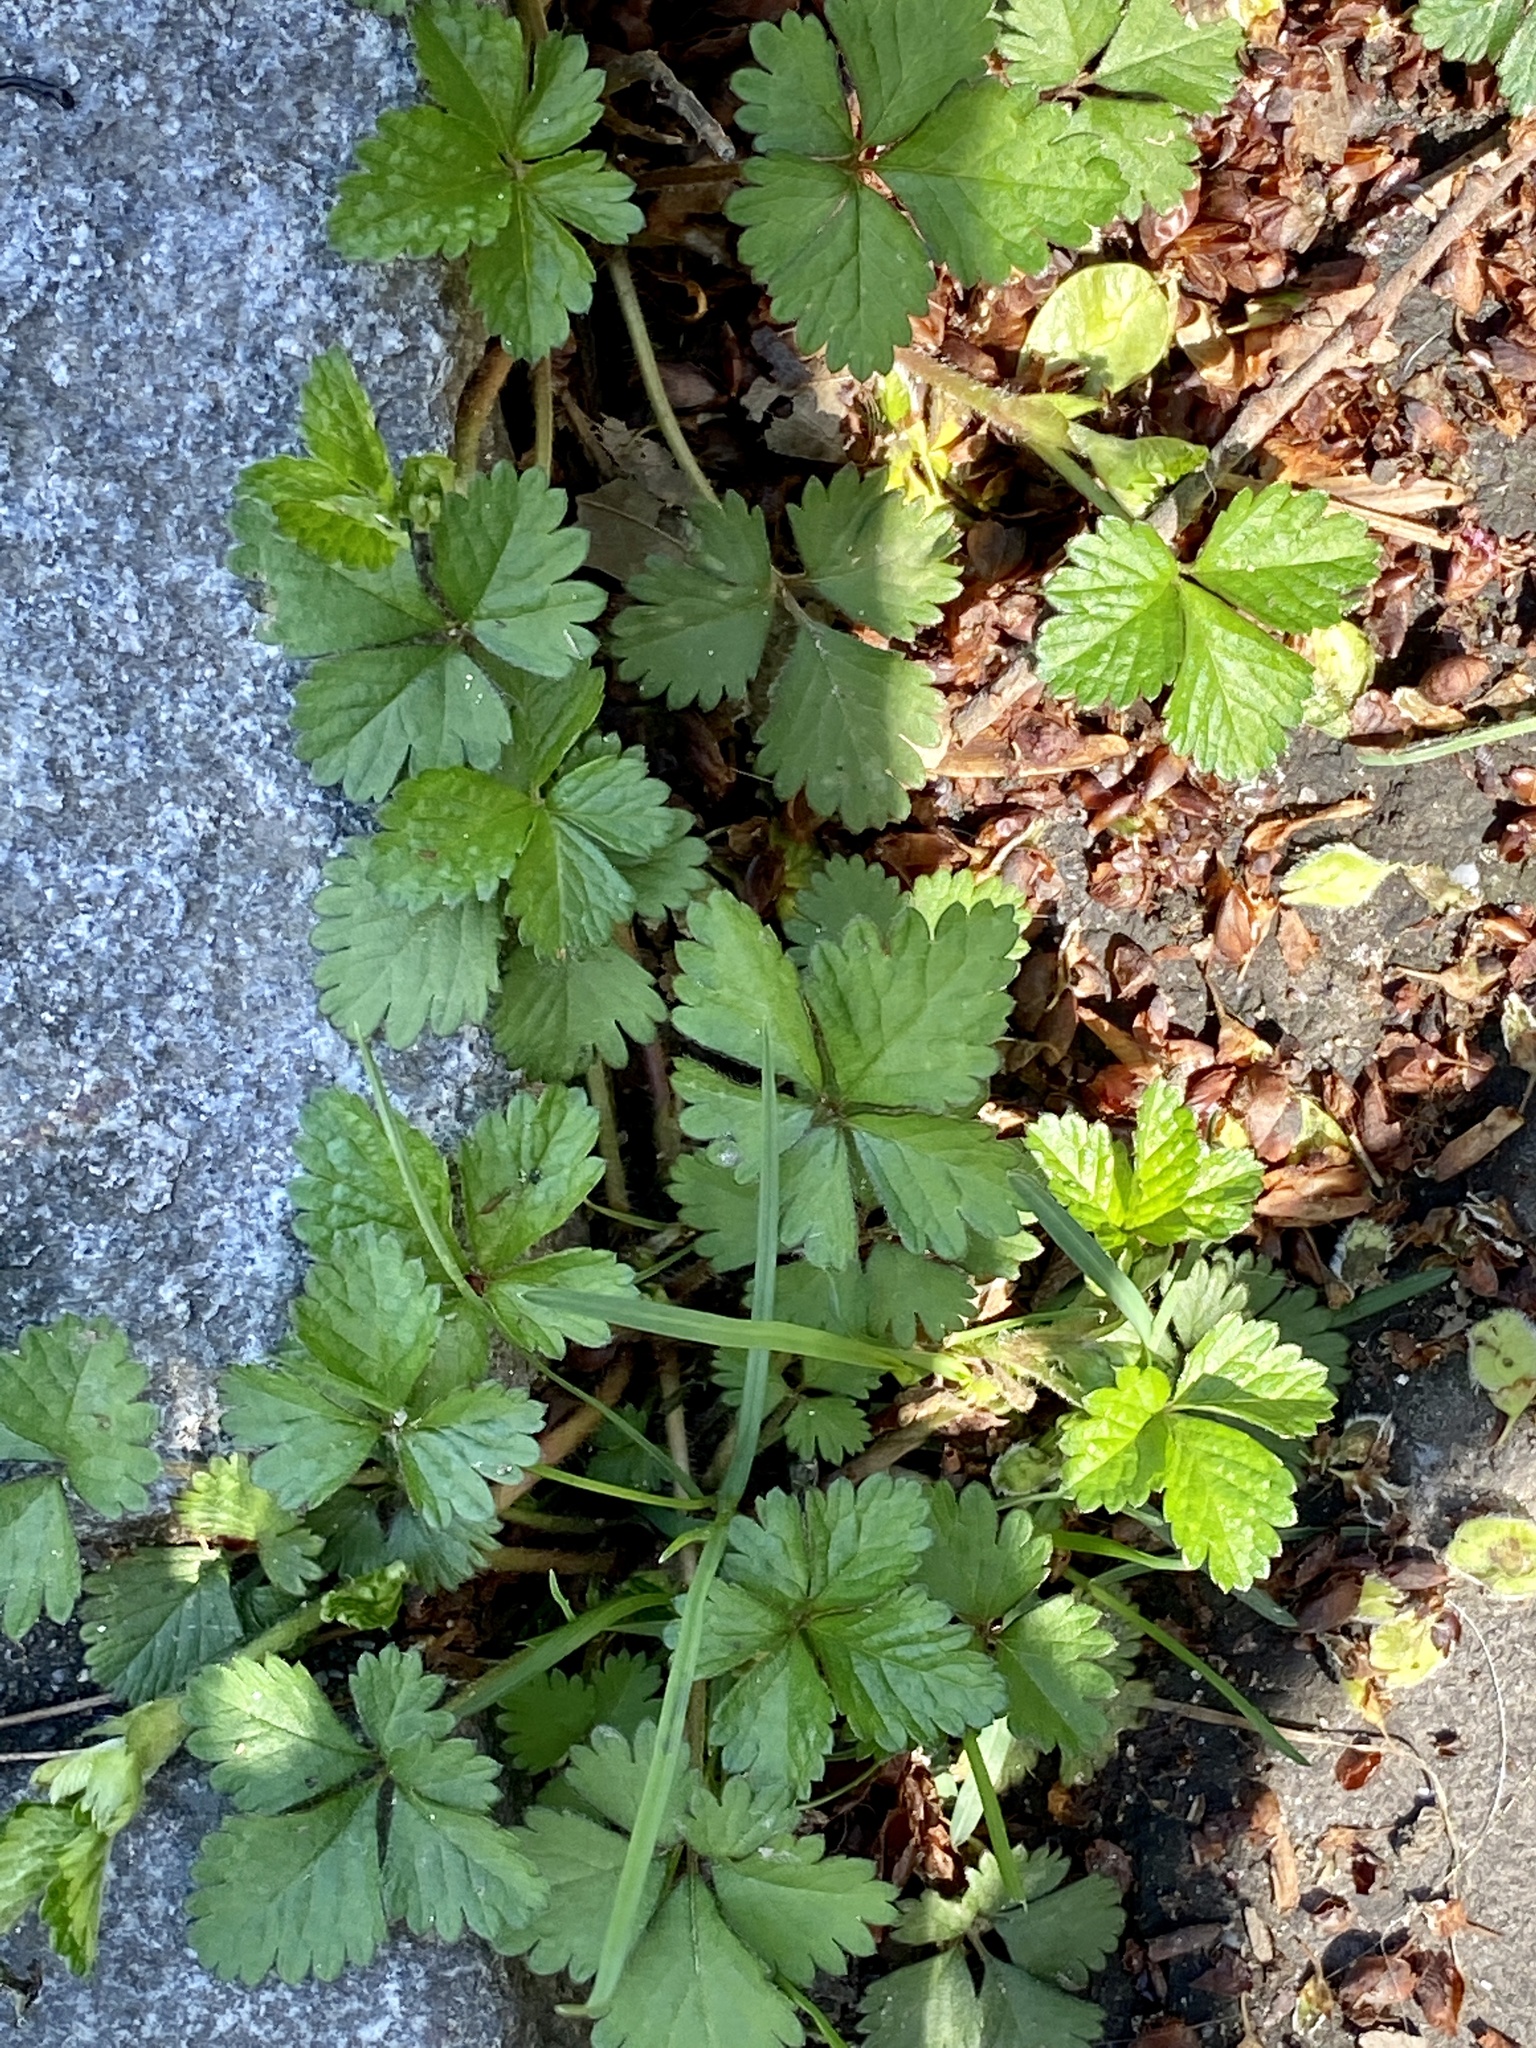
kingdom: Plantae
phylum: Tracheophyta
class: Magnoliopsida
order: Rosales
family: Rosaceae
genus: Potentilla
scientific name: Potentilla indica
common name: Yellow-flowered strawberry
